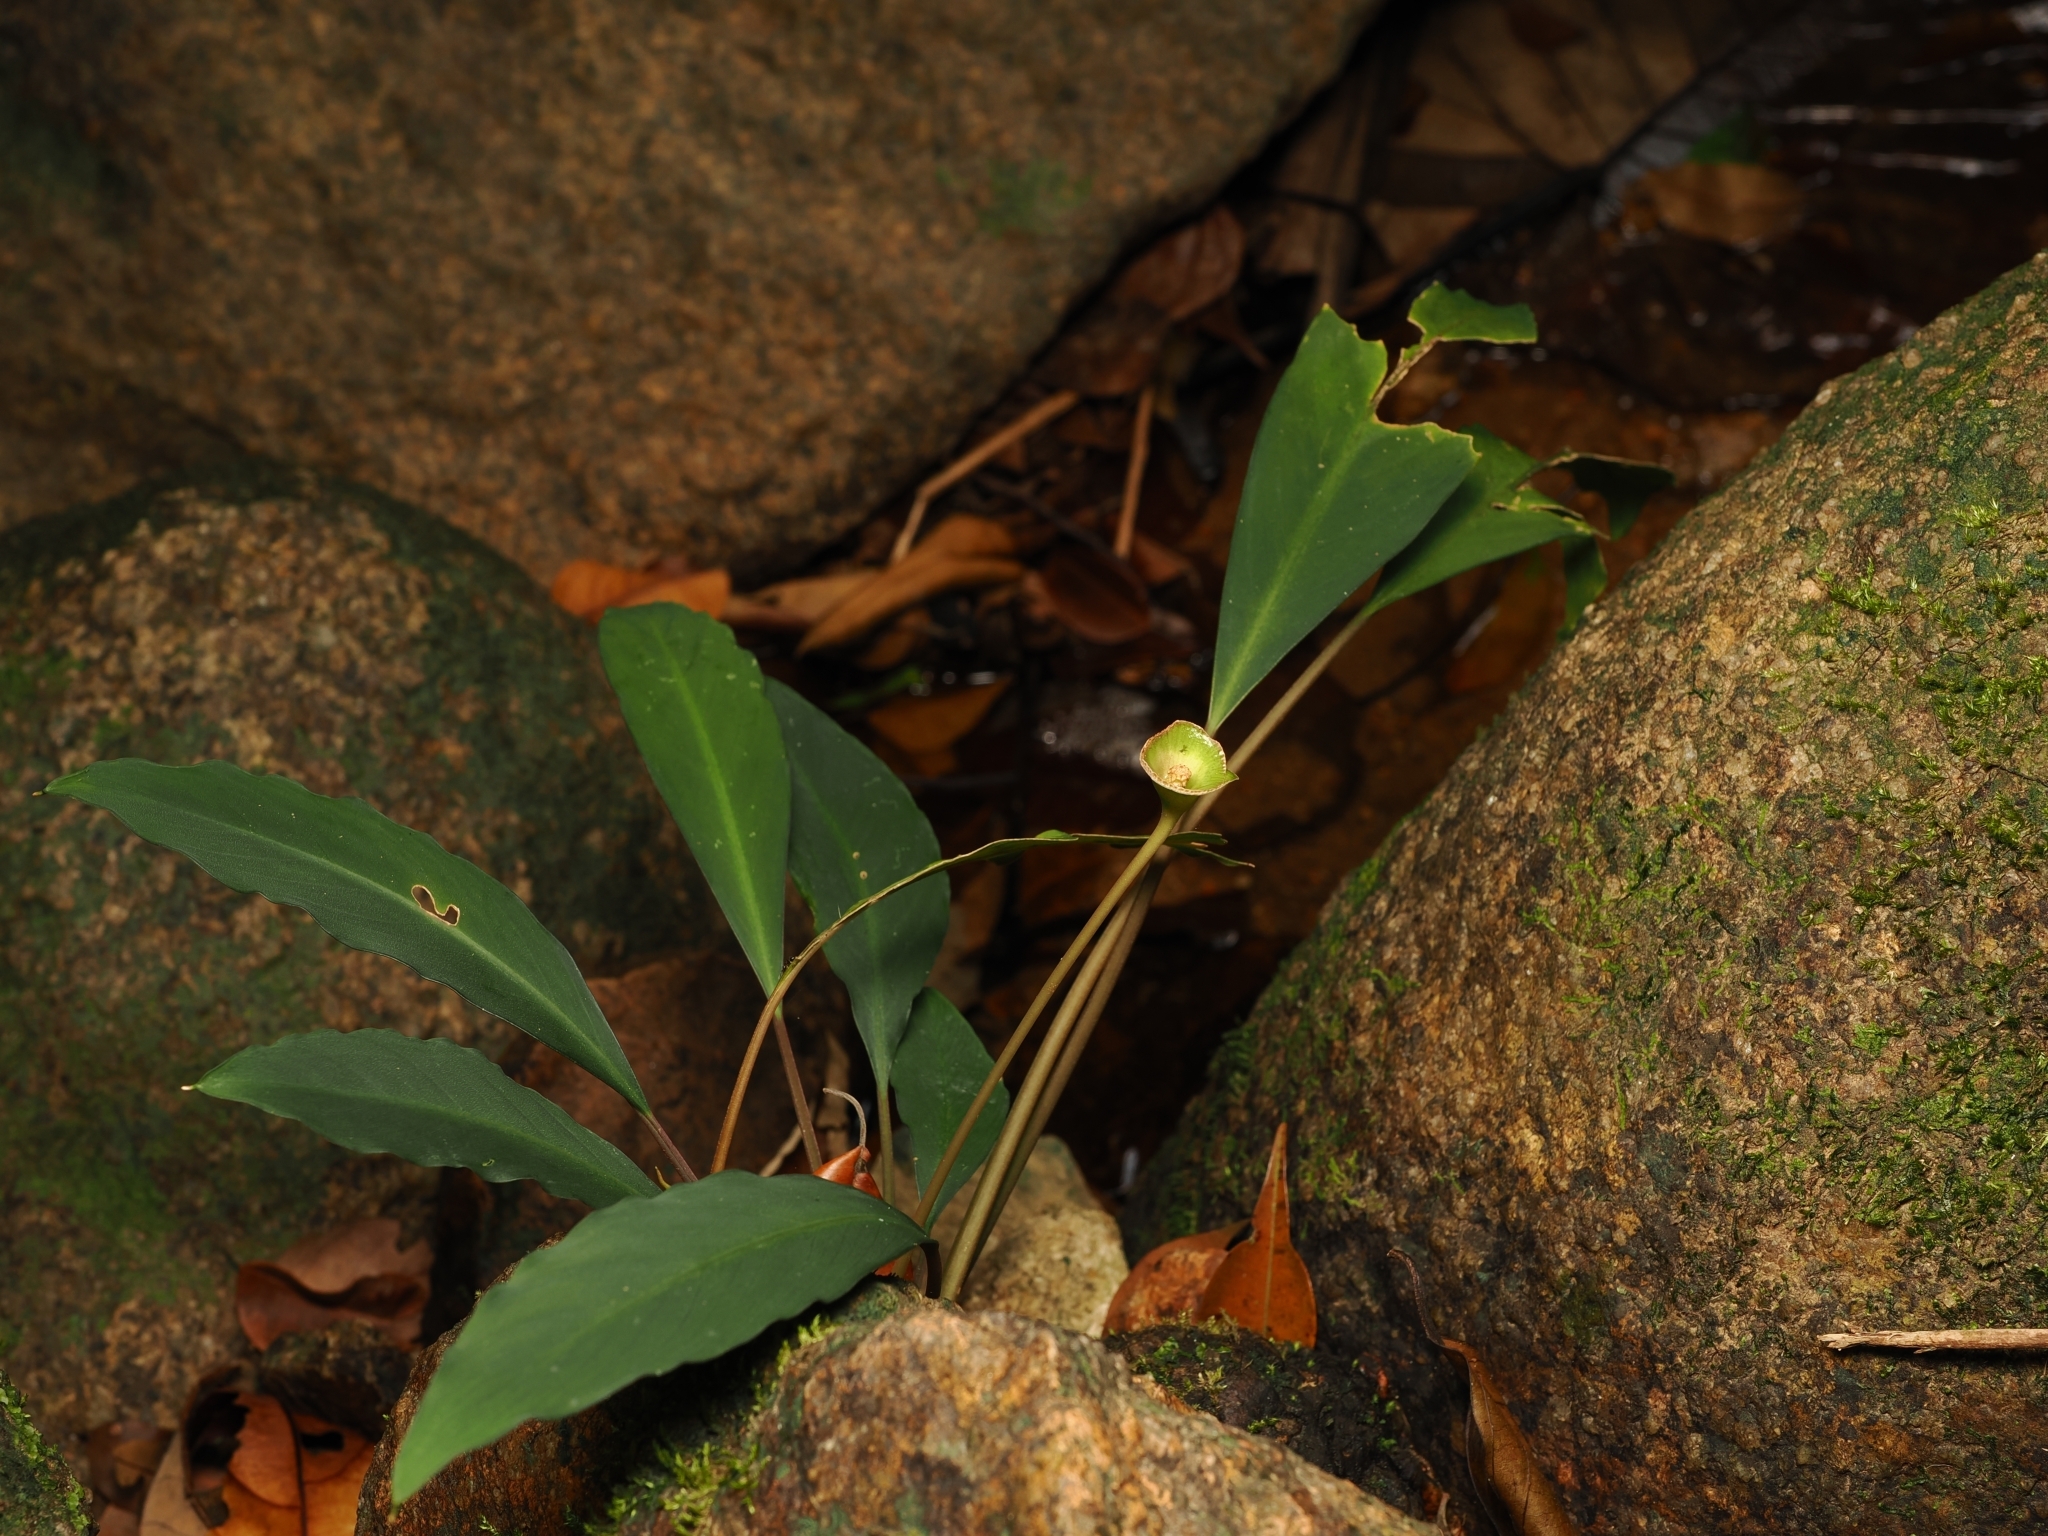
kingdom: Plantae
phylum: Tracheophyta
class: Liliopsida
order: Alismatales
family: Araceae
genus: Kiewia
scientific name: Kiewia ridleyi
